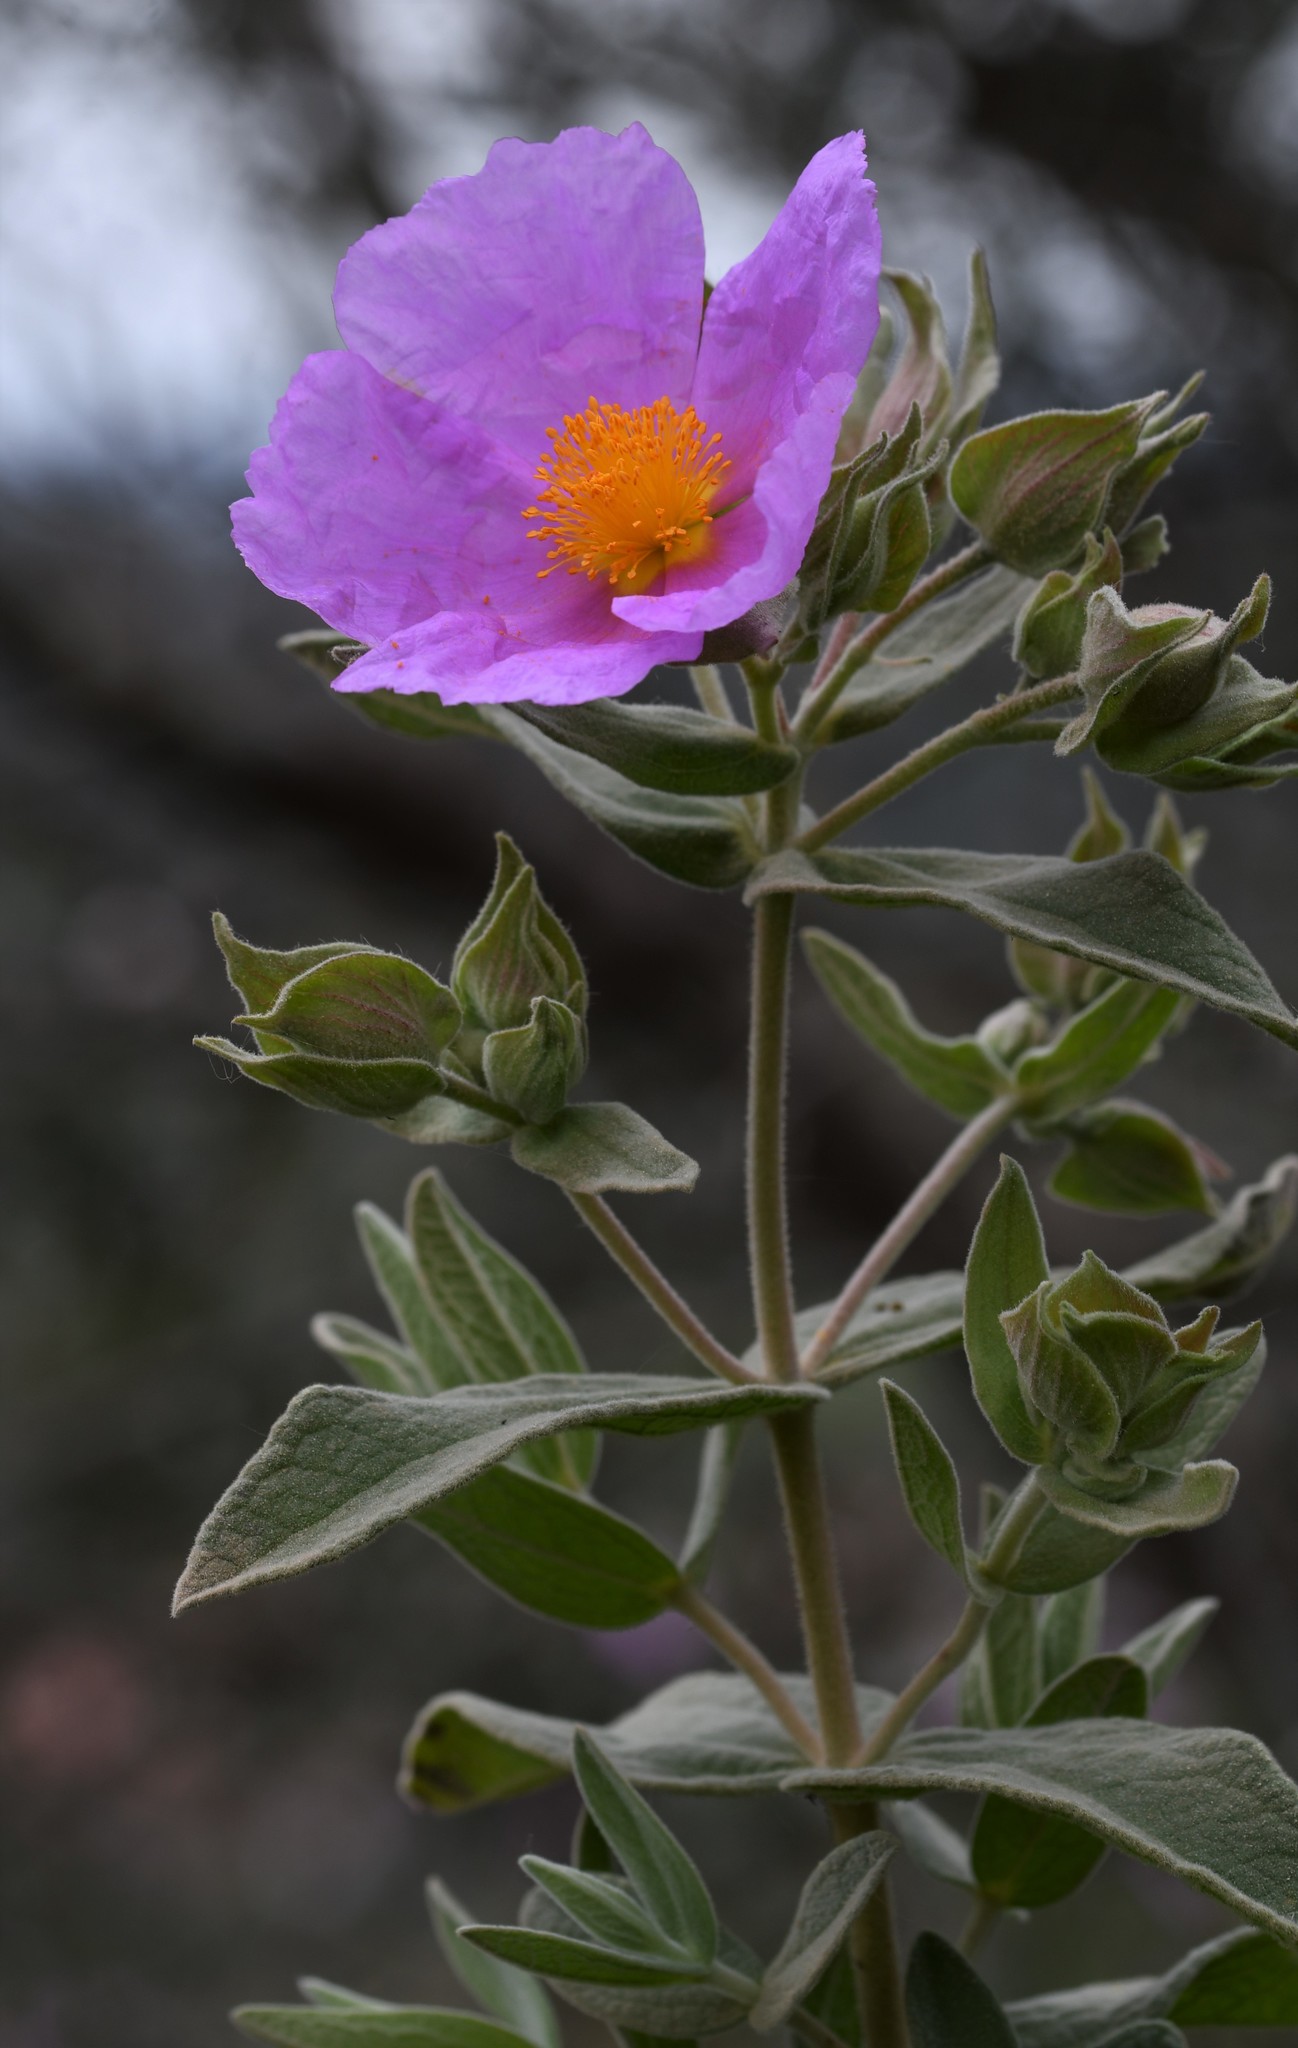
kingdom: Plantae
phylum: Tracheophyta
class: Magnoliopsida
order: Malvales
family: Cistaceae
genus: Cistus
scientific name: Cistus albidus
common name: White-leaf rock-rose
